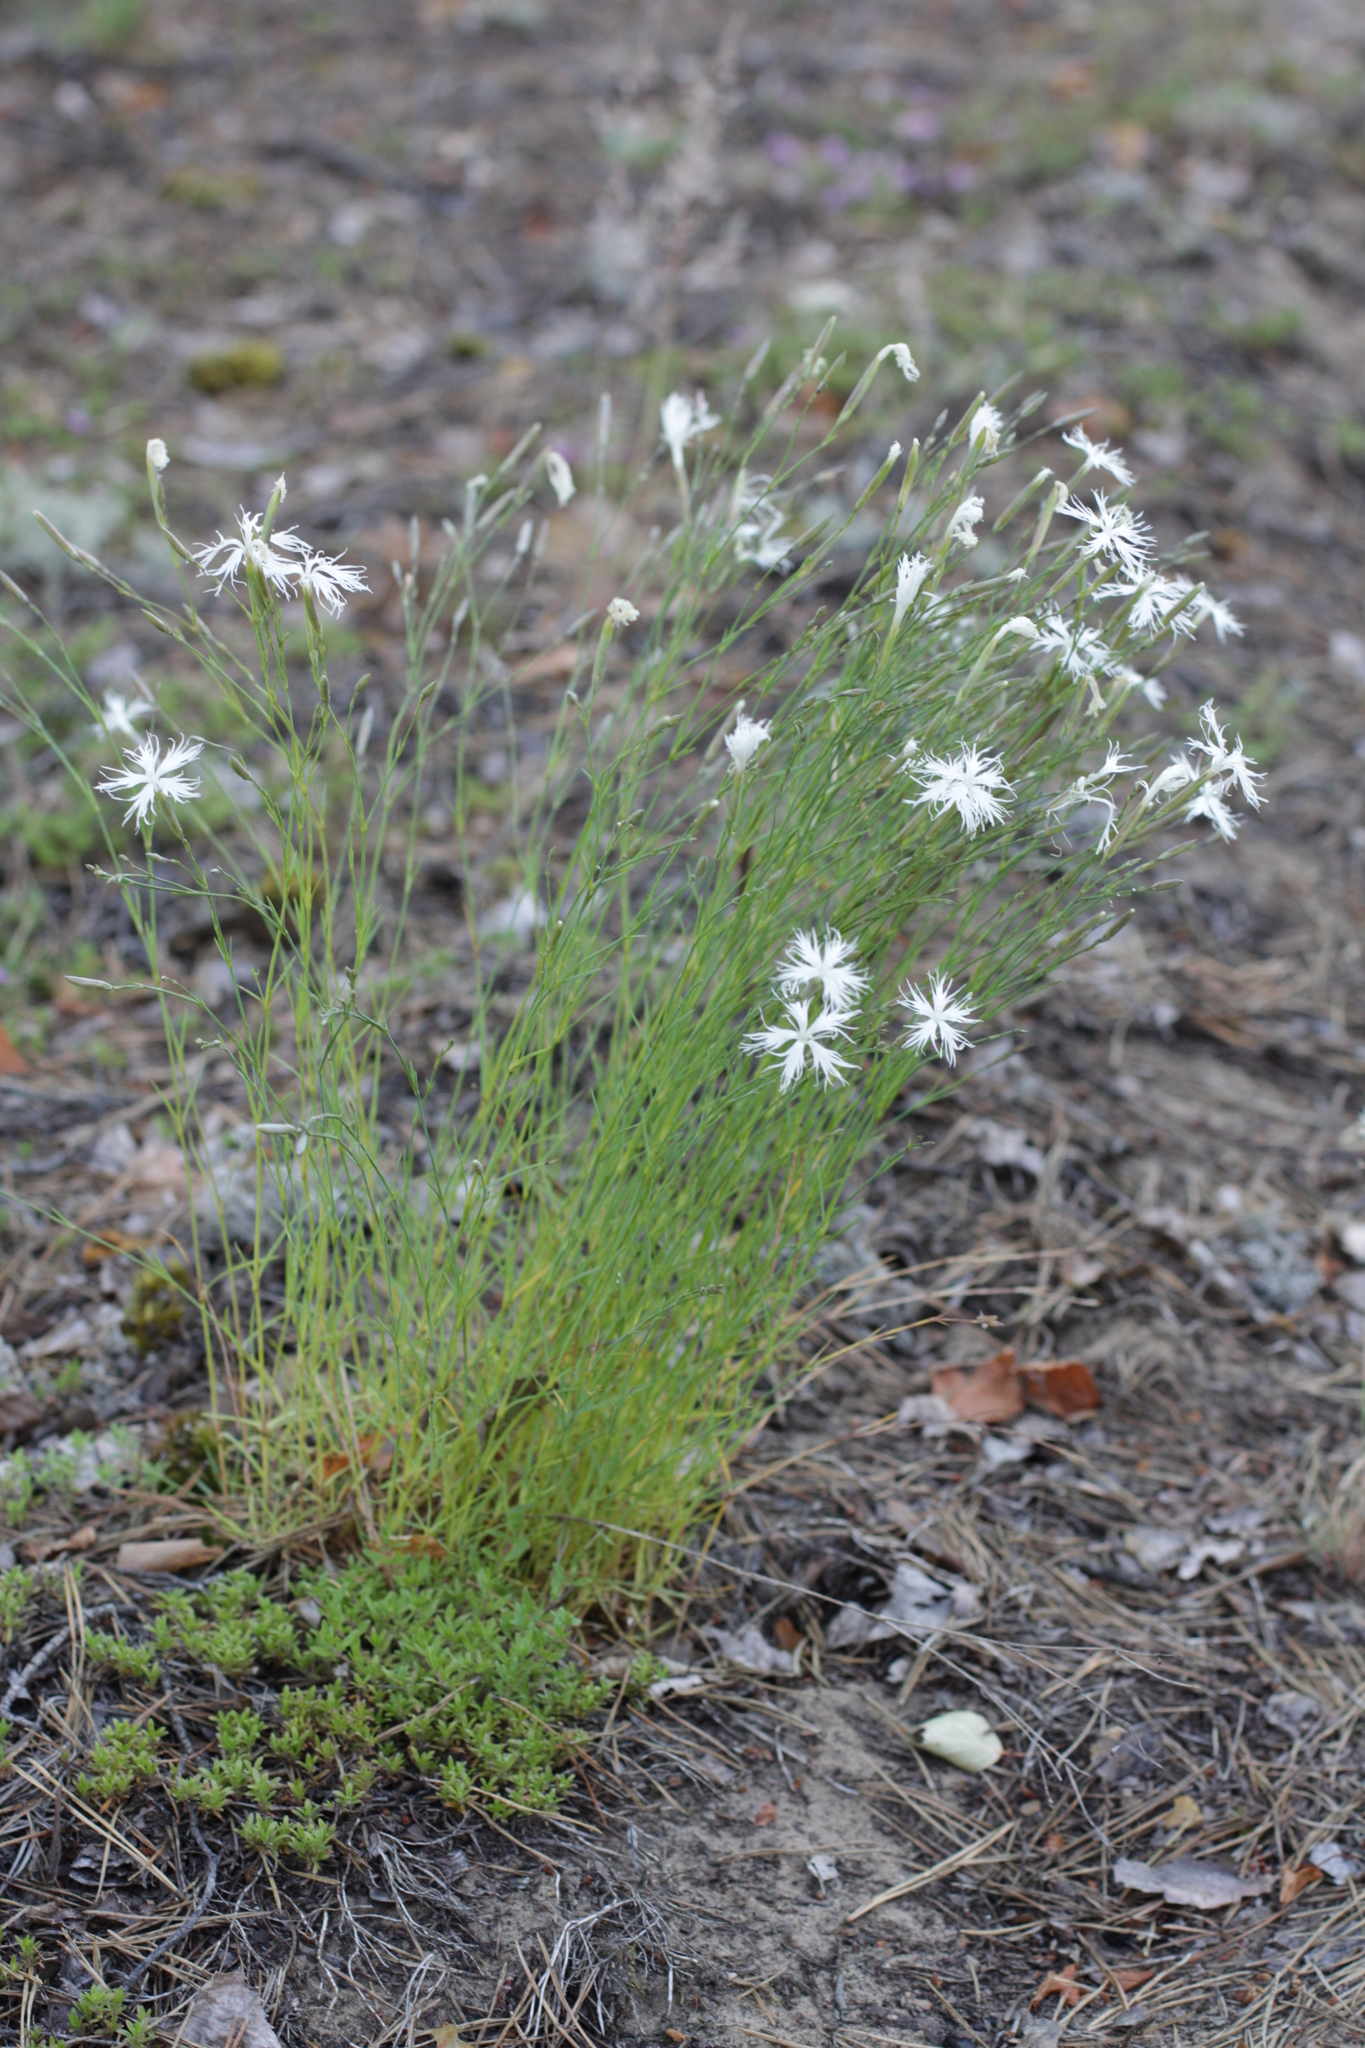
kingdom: Plantae
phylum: Tracheophyta
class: Magnoliopsida
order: Caryophyllales
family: Caryophyllaceae
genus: Dianthus
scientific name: Dianthus arenarius
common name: Stone pink
